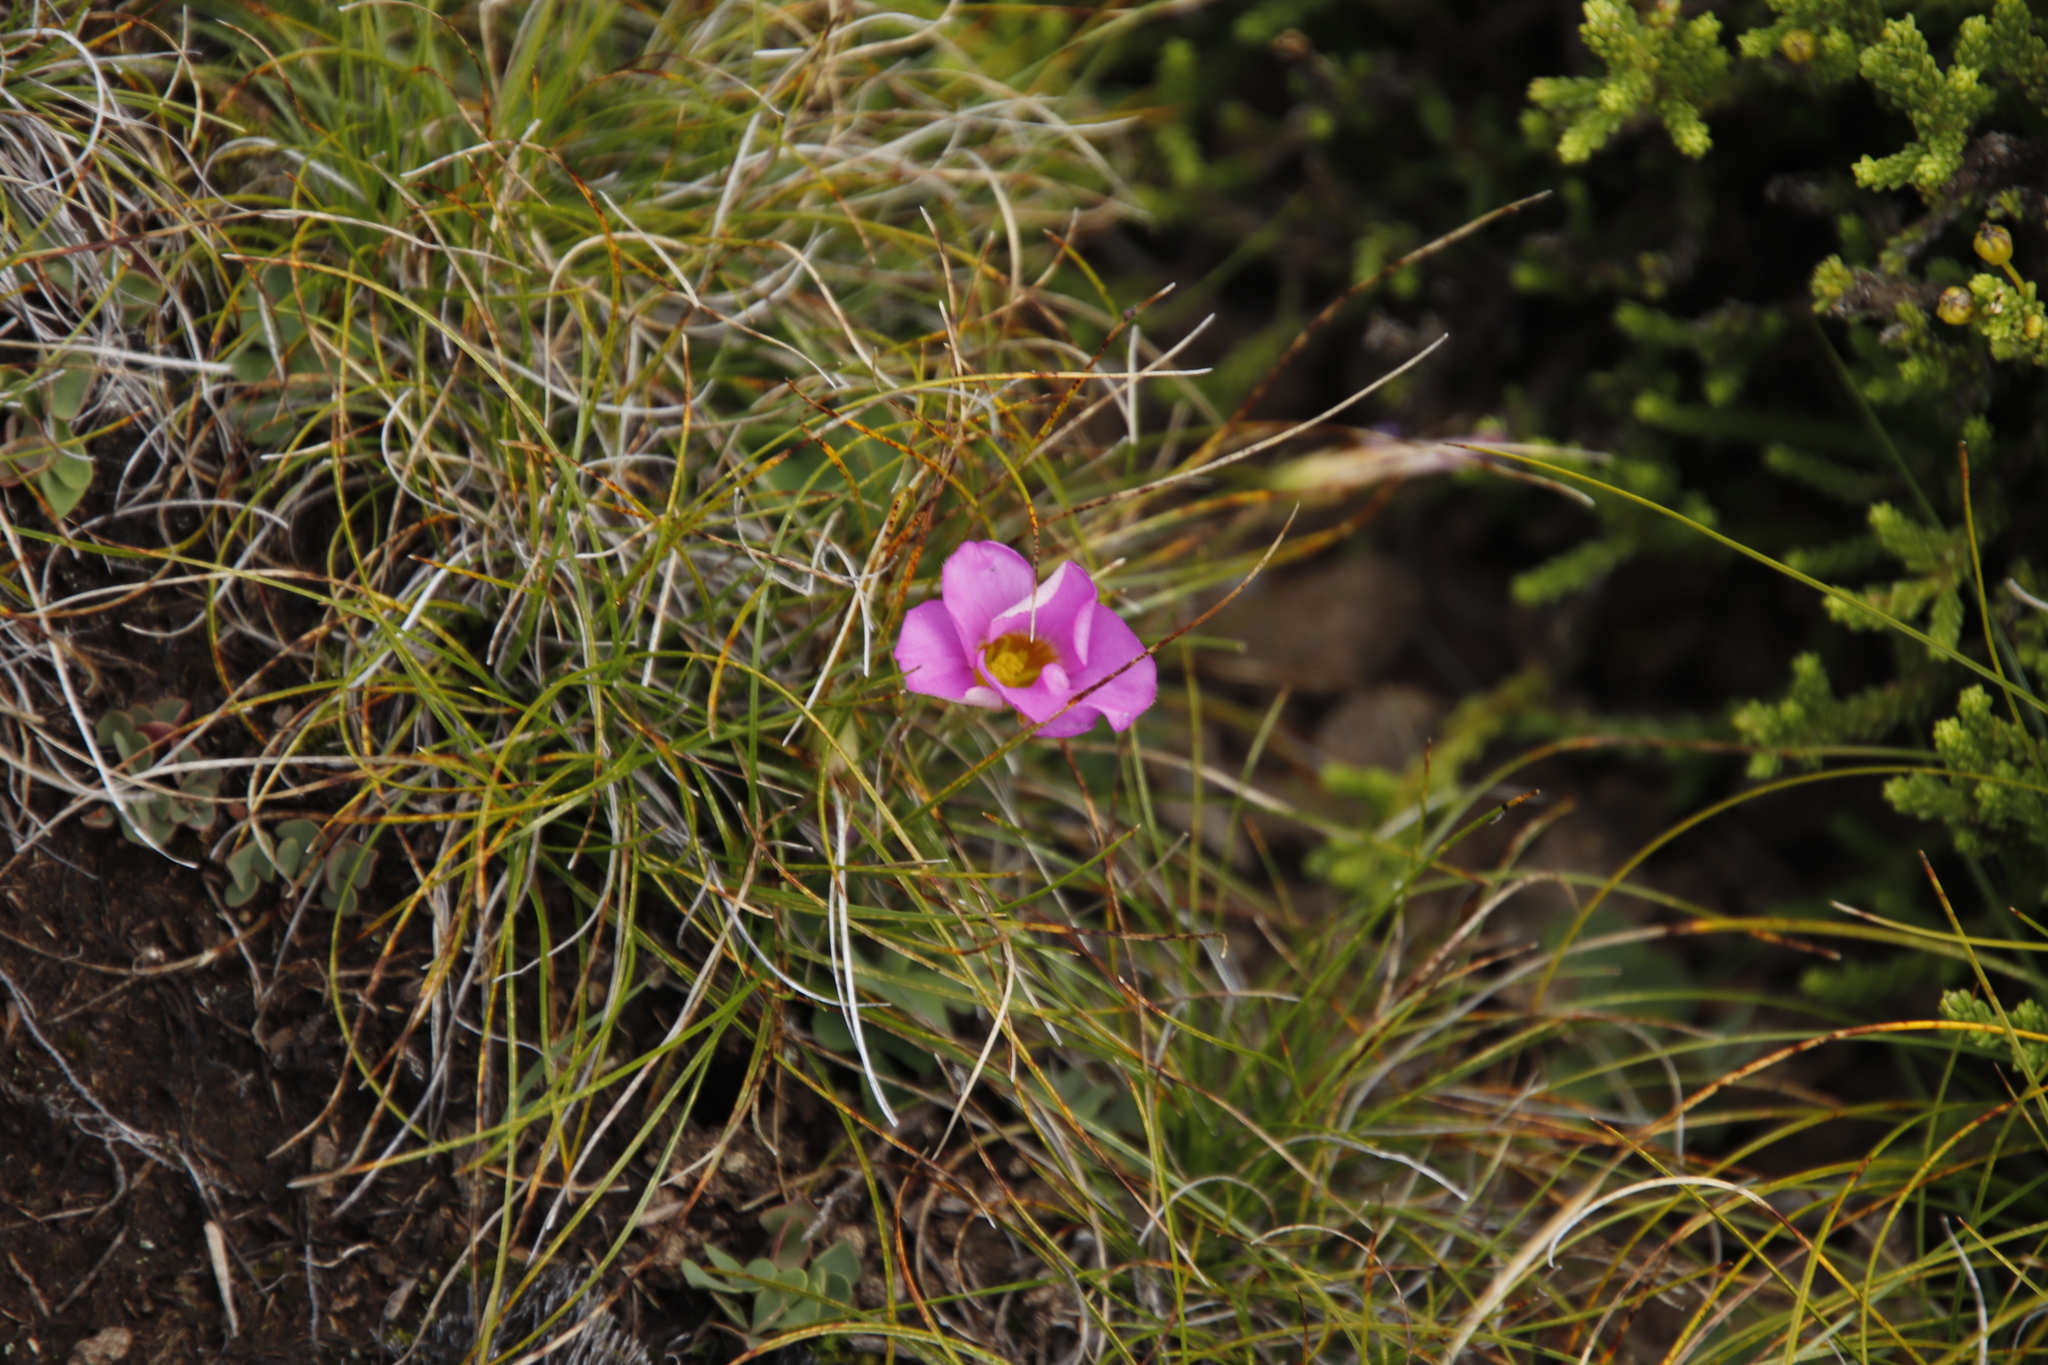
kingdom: Plantae
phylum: Tracheophyta
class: Magnoliopsida
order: Oxalidales
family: Oxalidaceae
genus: Oxalis
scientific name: Oxalis obliquifolia
